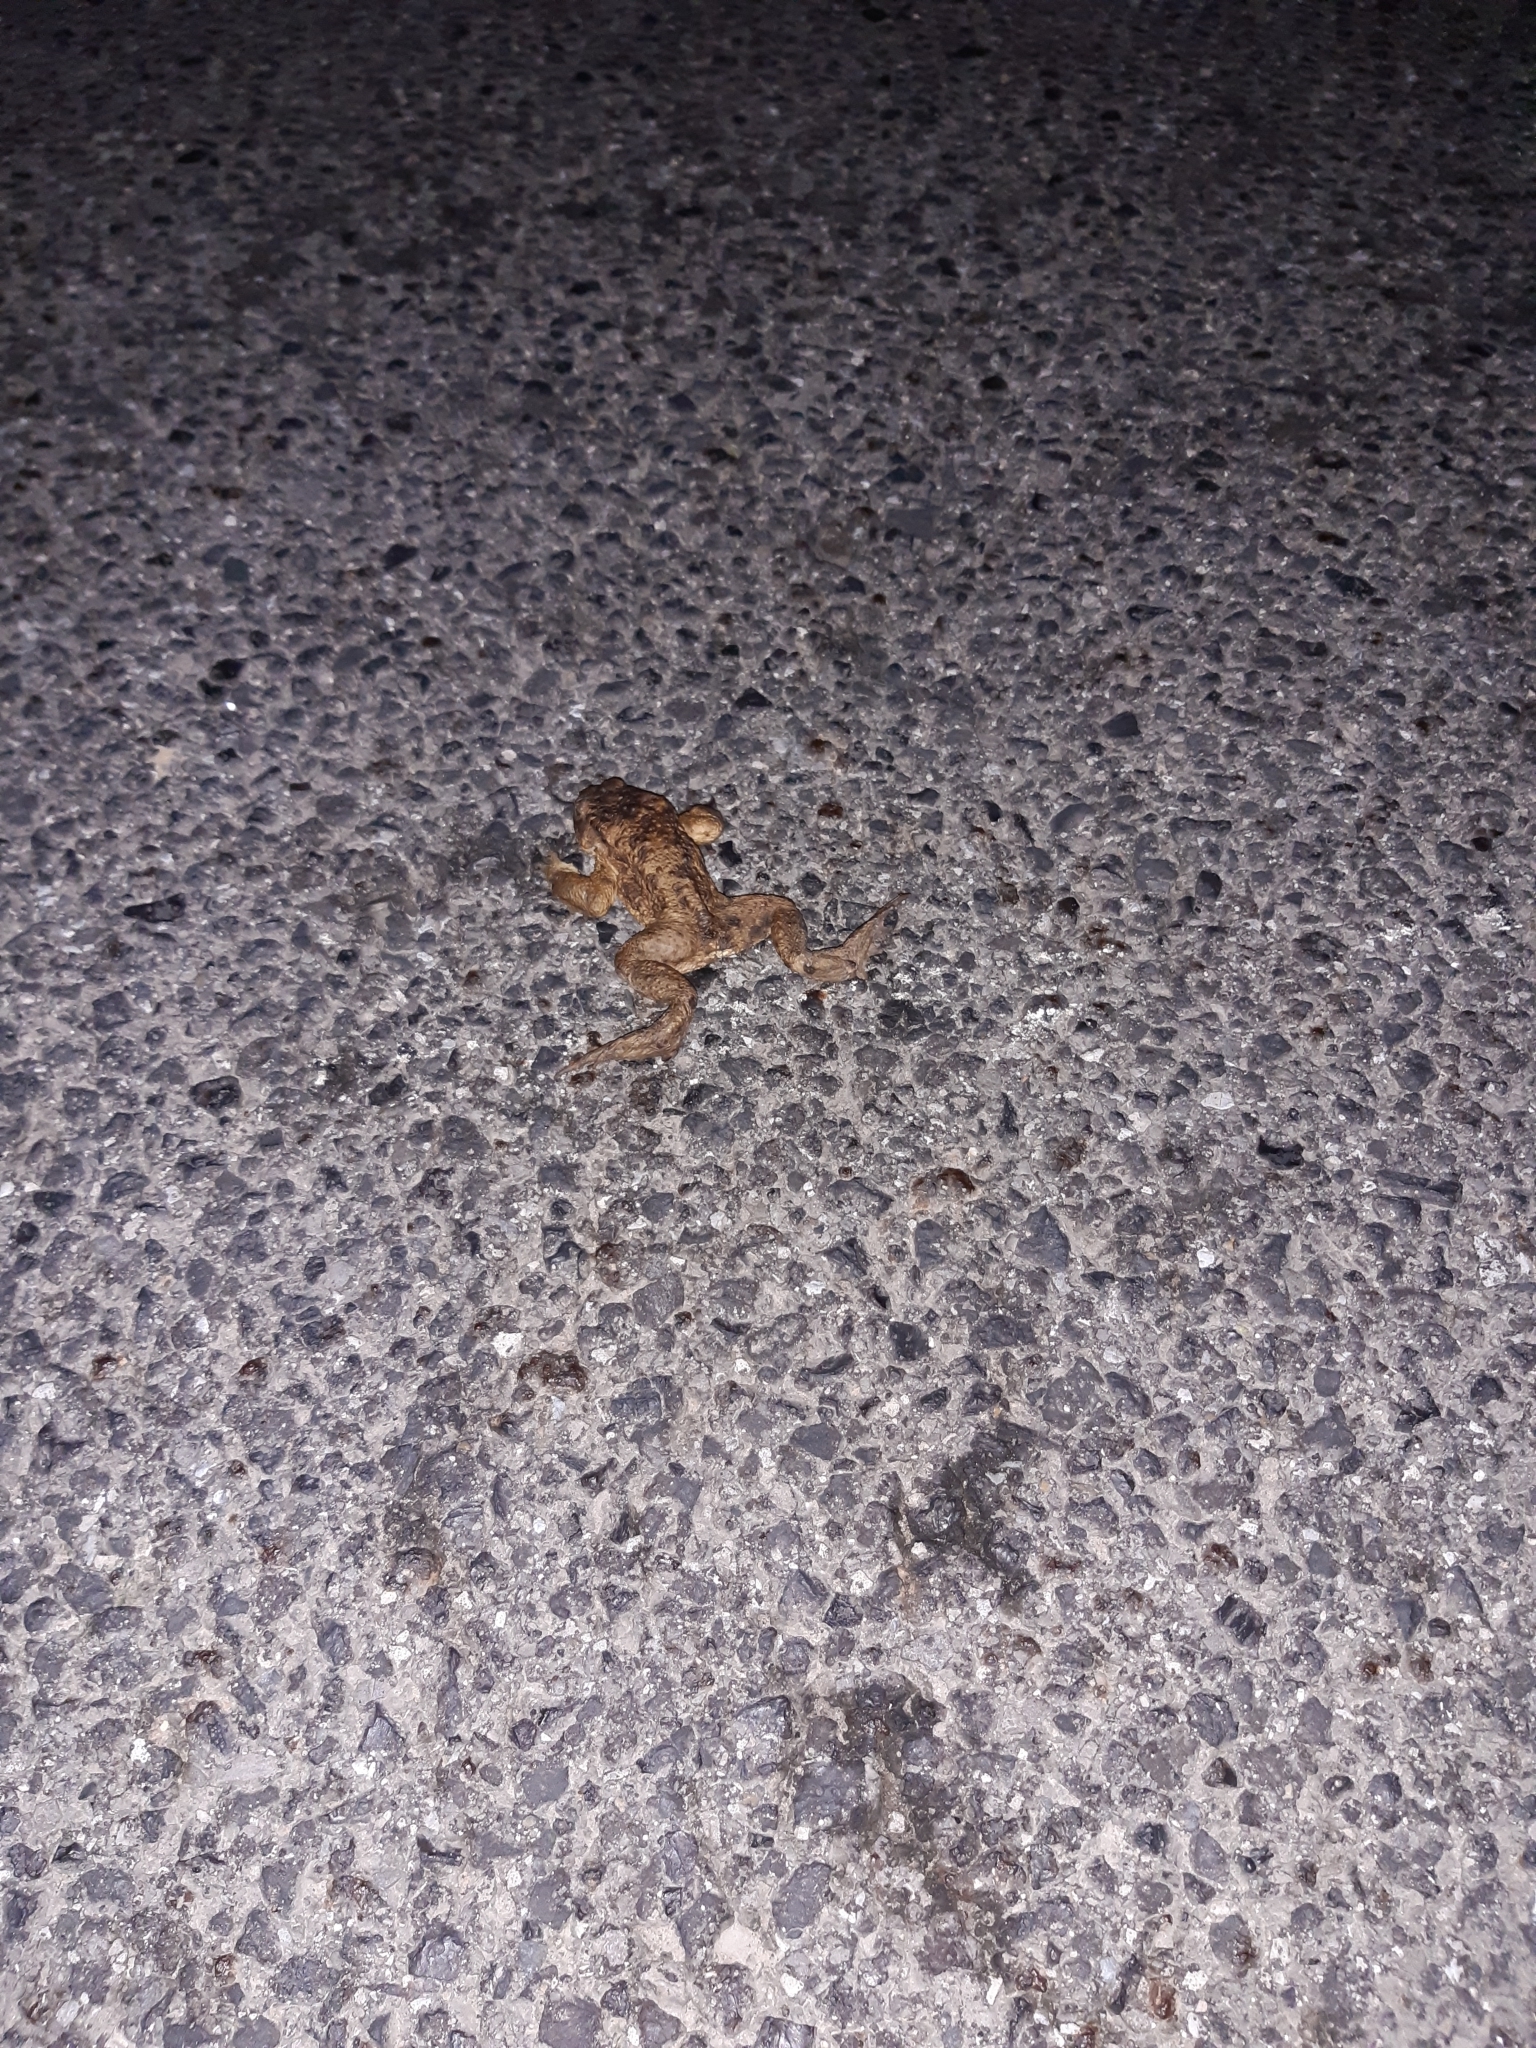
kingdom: Animalia
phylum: Chordata
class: Amphibia
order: Anura
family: Bufonidae
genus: Bufo
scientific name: Bufo bufo
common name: Common toad
